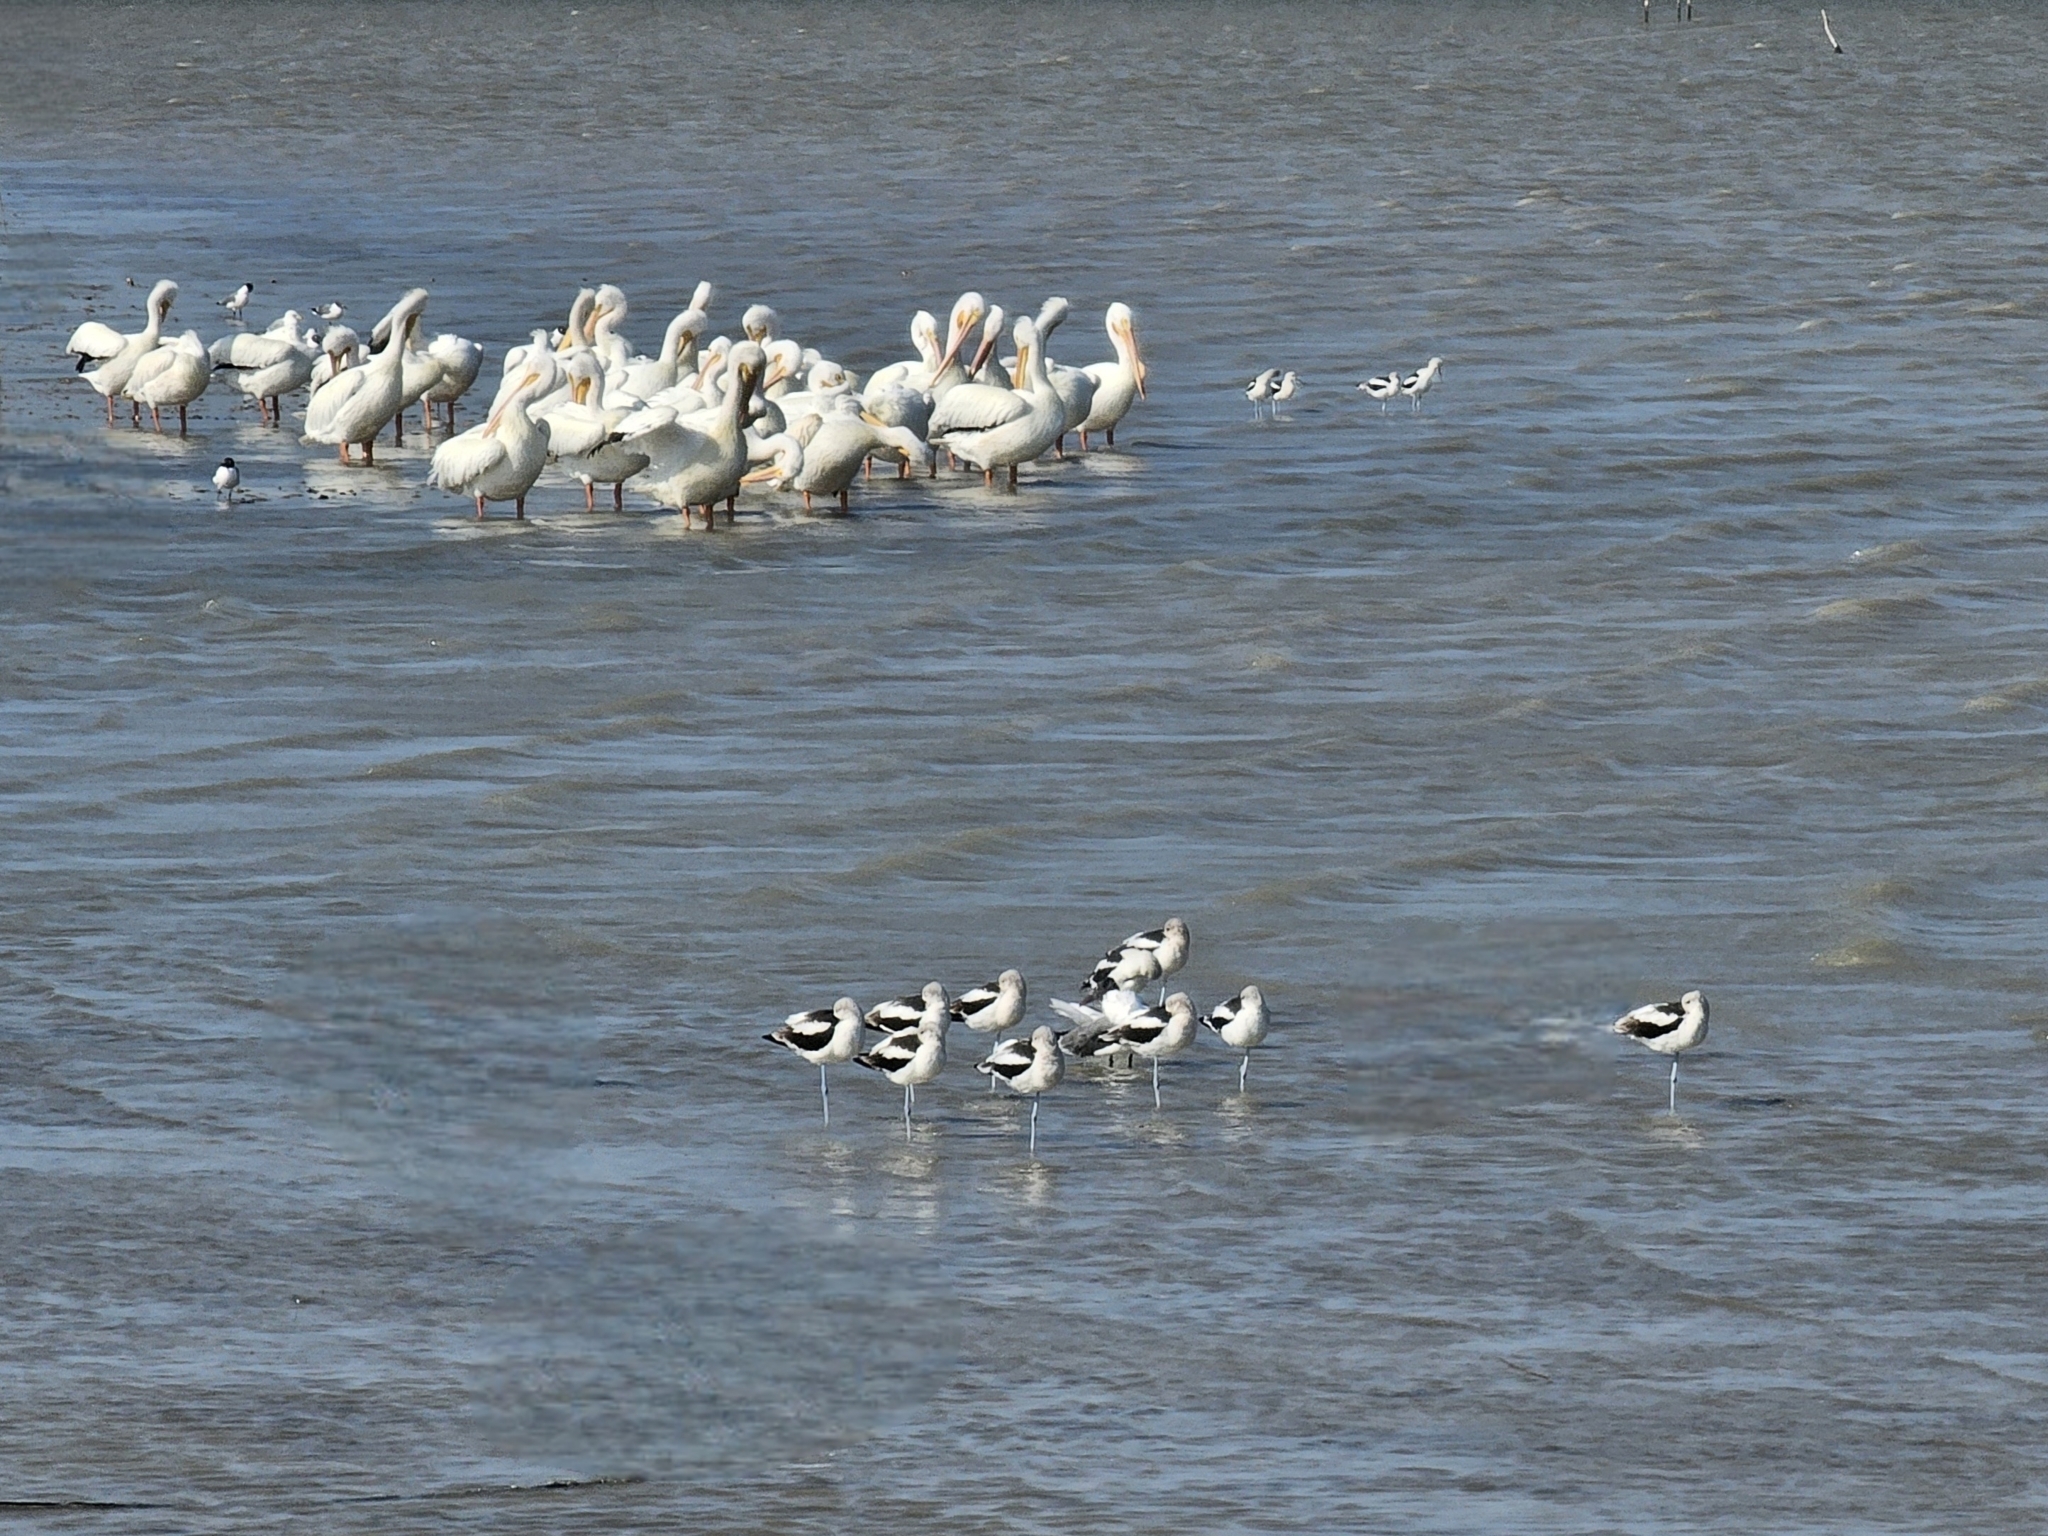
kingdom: Animalia
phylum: Chordata
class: Aves
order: Charadriiformes
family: Recurvirostridae
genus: Recurvirostra
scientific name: Recurvirostra americana
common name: American avocet
